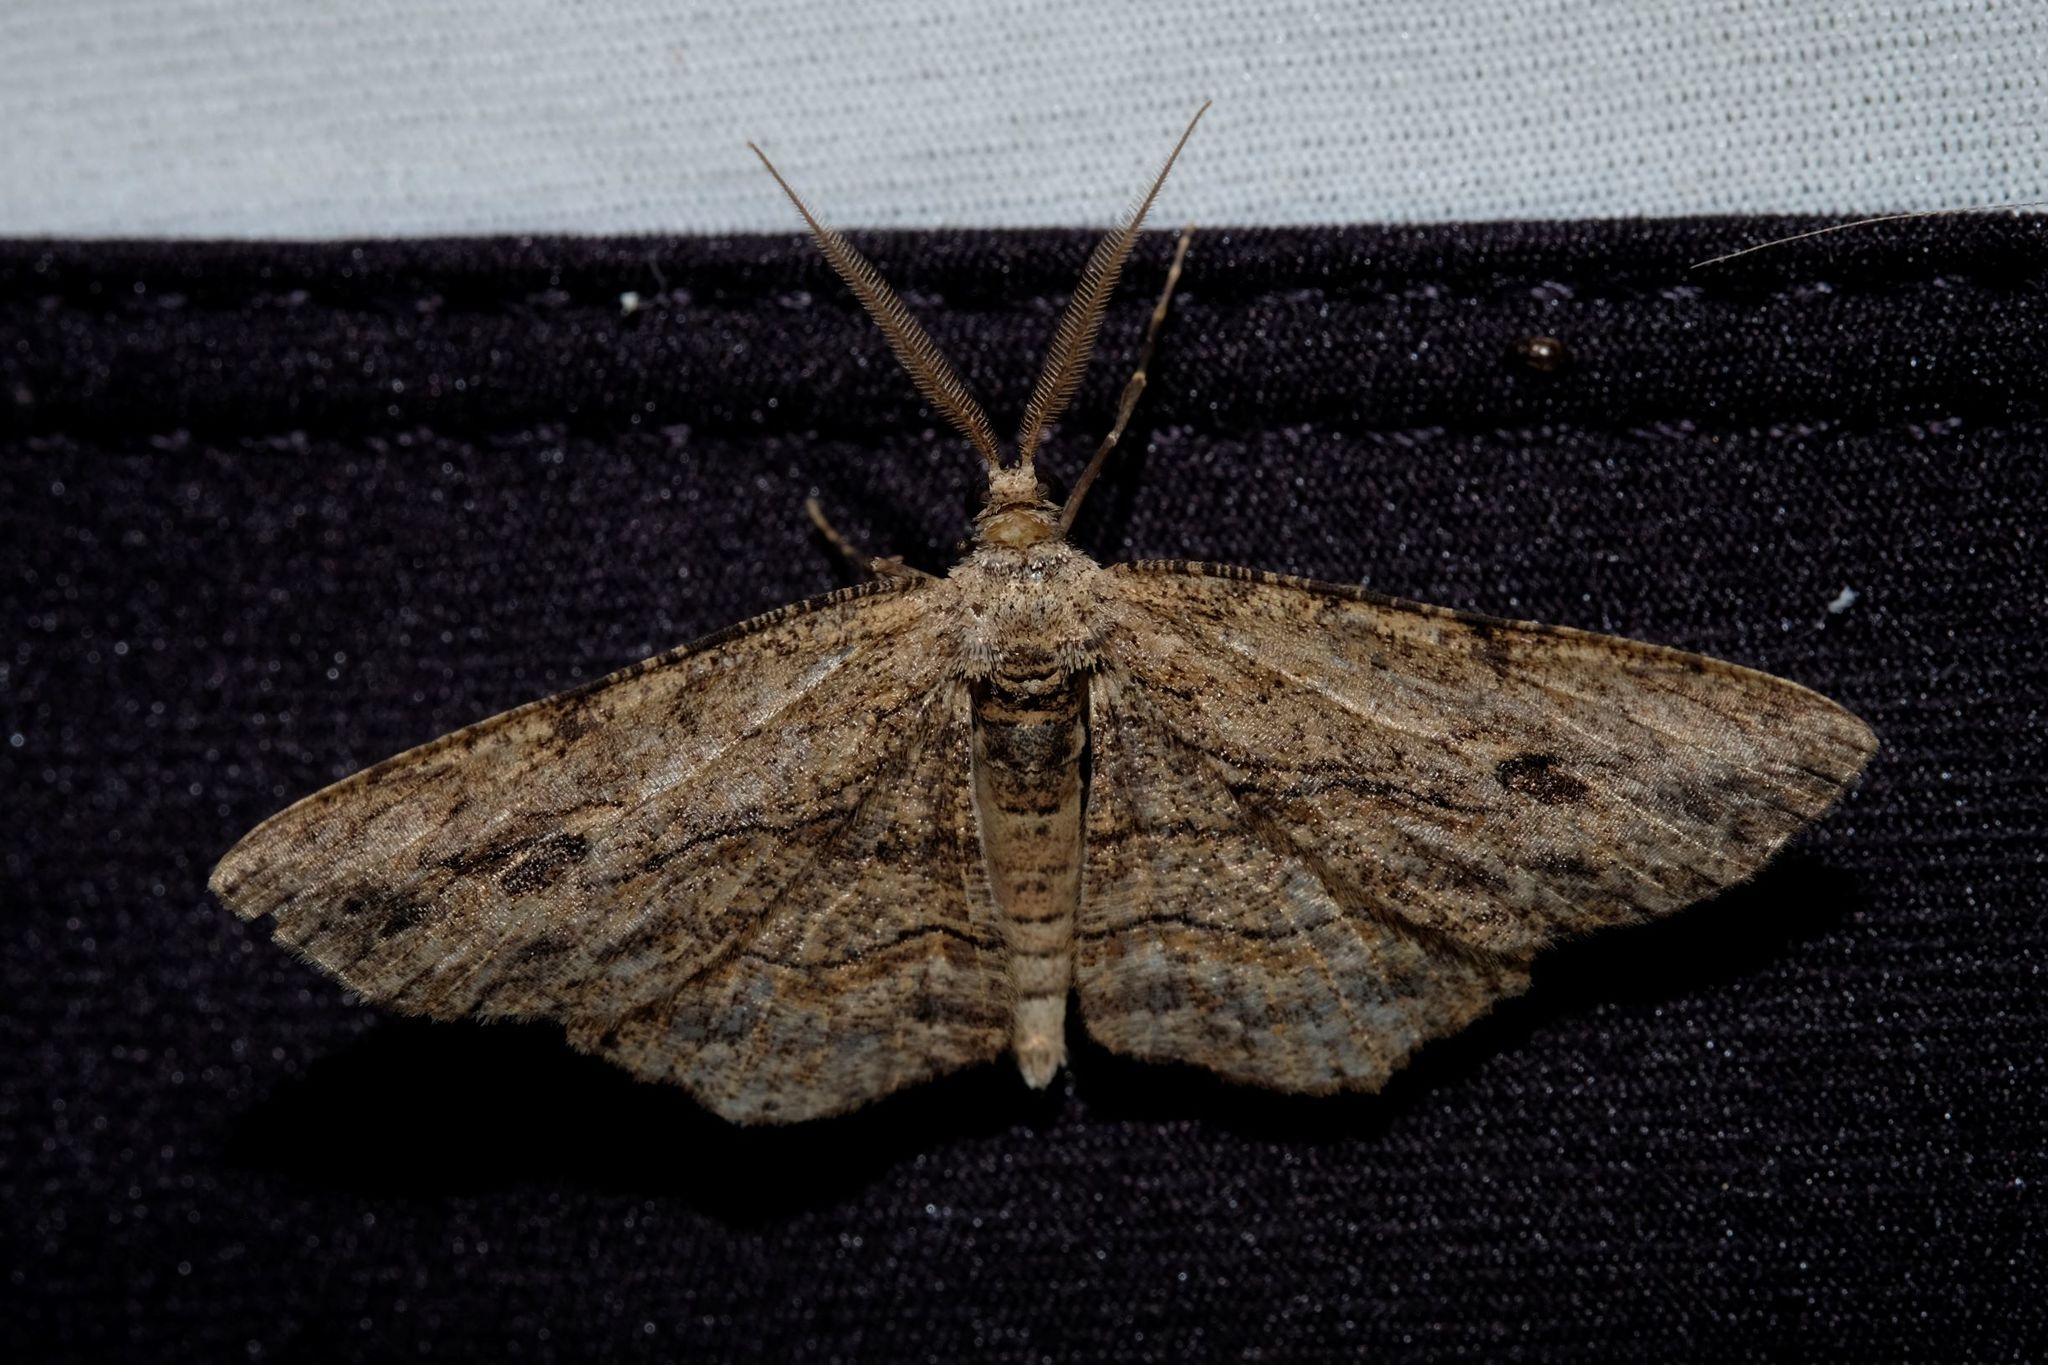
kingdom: Animalia
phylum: Arthropoda
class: Insecta
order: Lepidoptera
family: Geometridae
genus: Ectropis
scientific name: Ectropis excursaria
